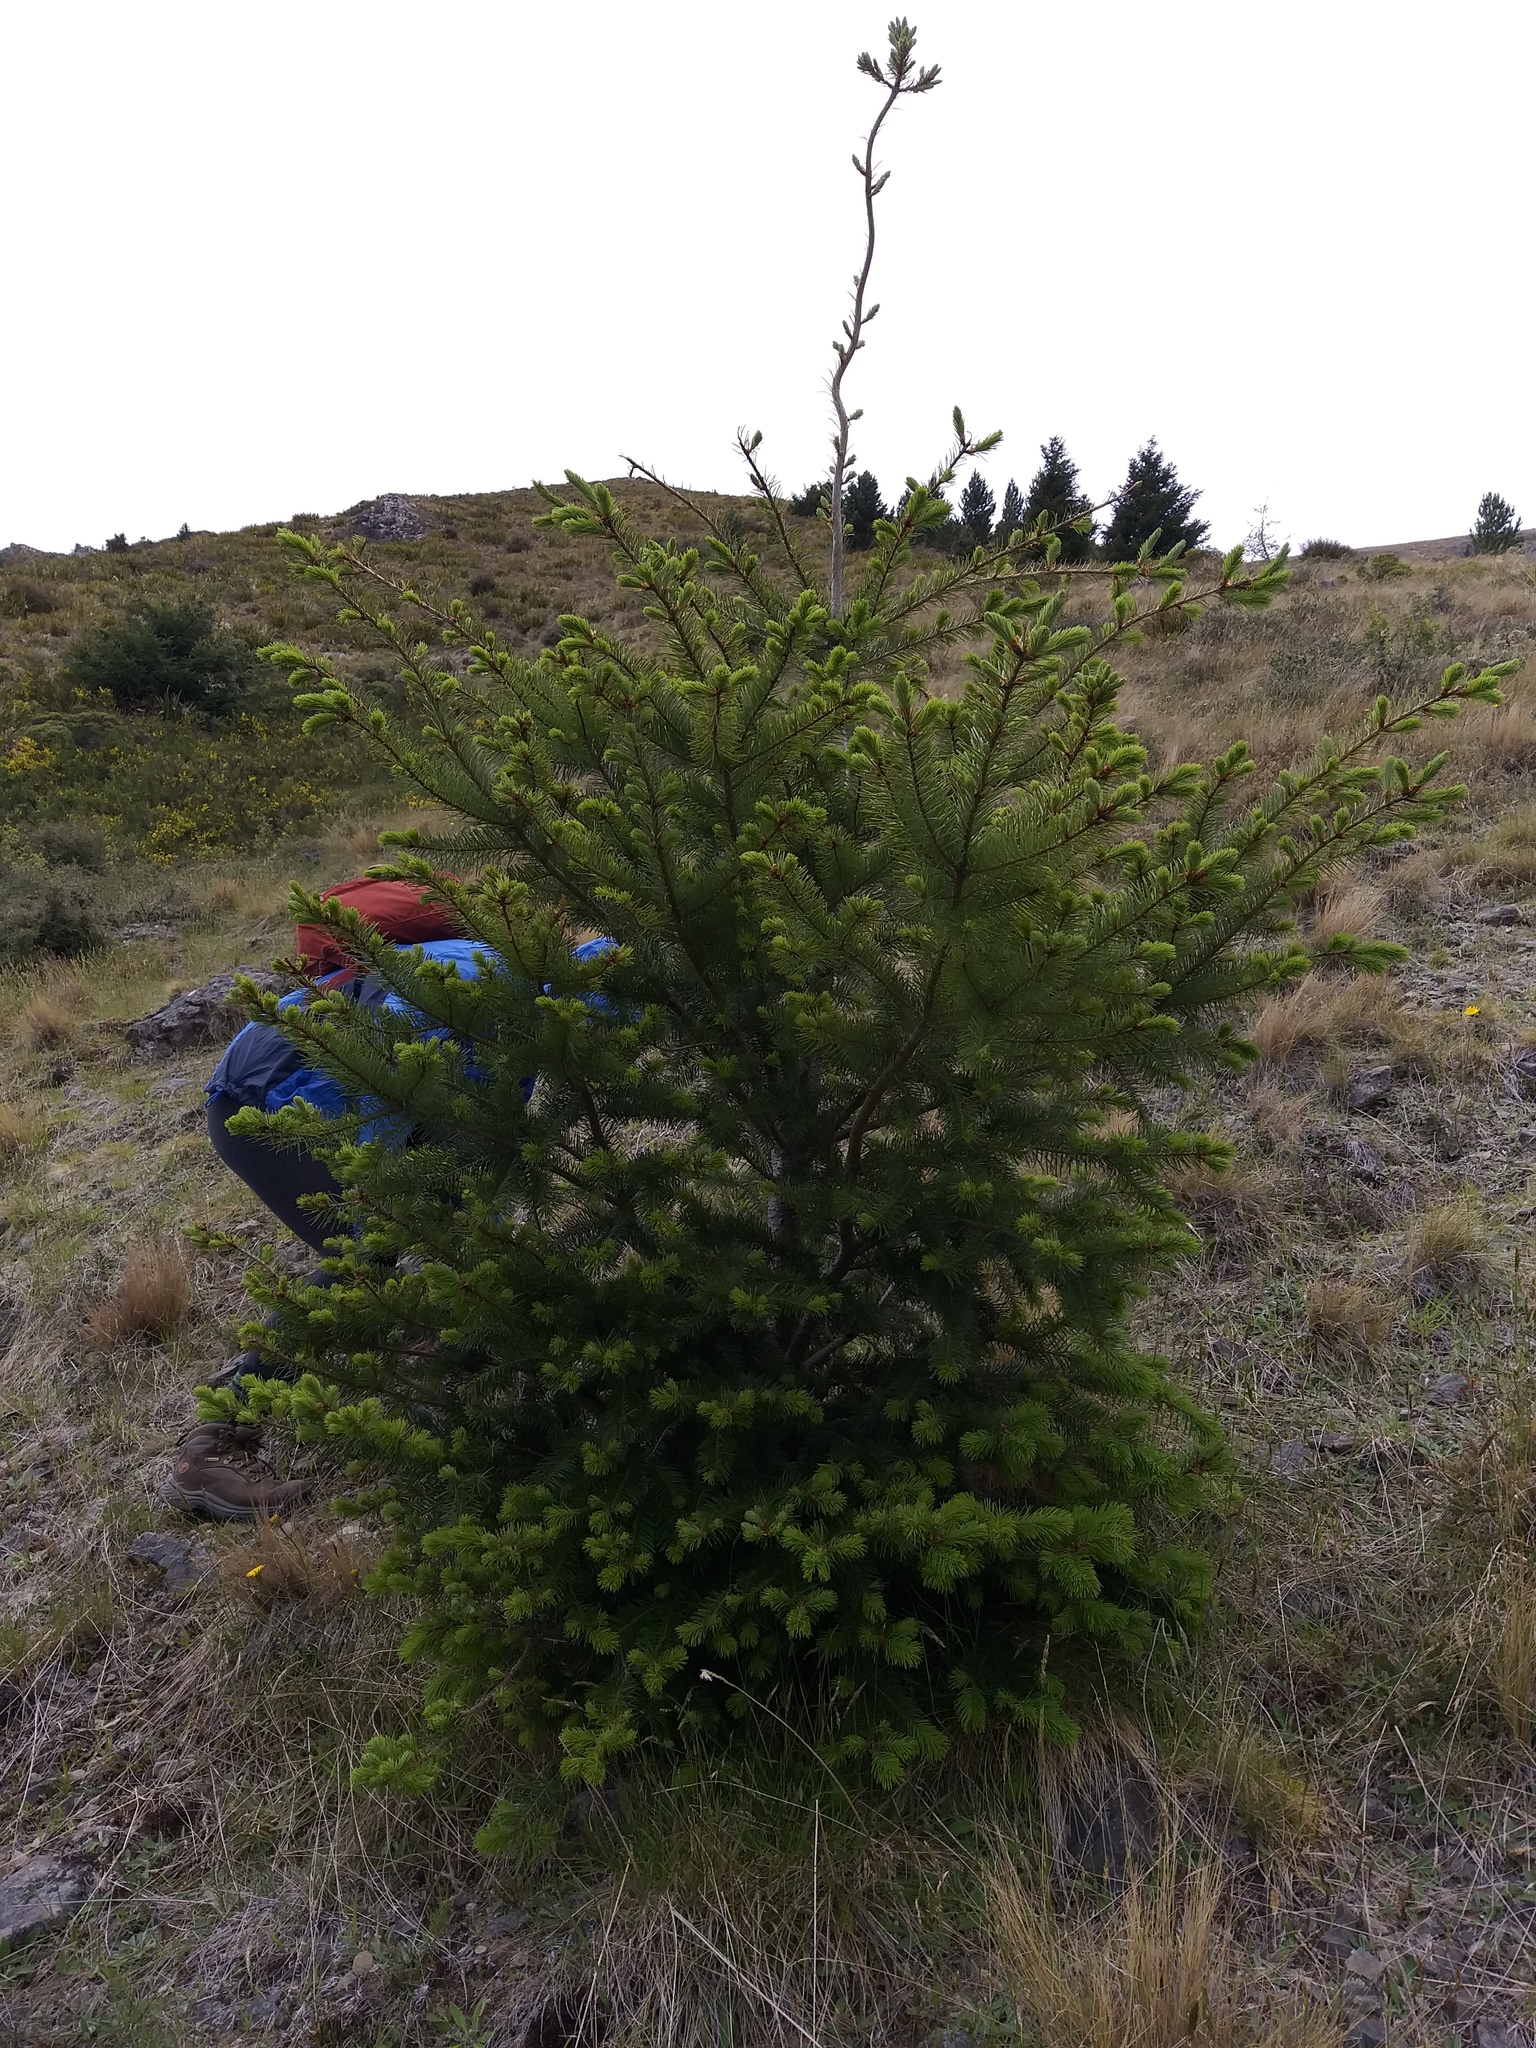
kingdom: Plantae
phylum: Tracheophyta
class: Pinopsida
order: Pinales
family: Pinaceae
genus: Pseudotsuga
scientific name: Pseudotsuga menziesii
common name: Douglas fir
